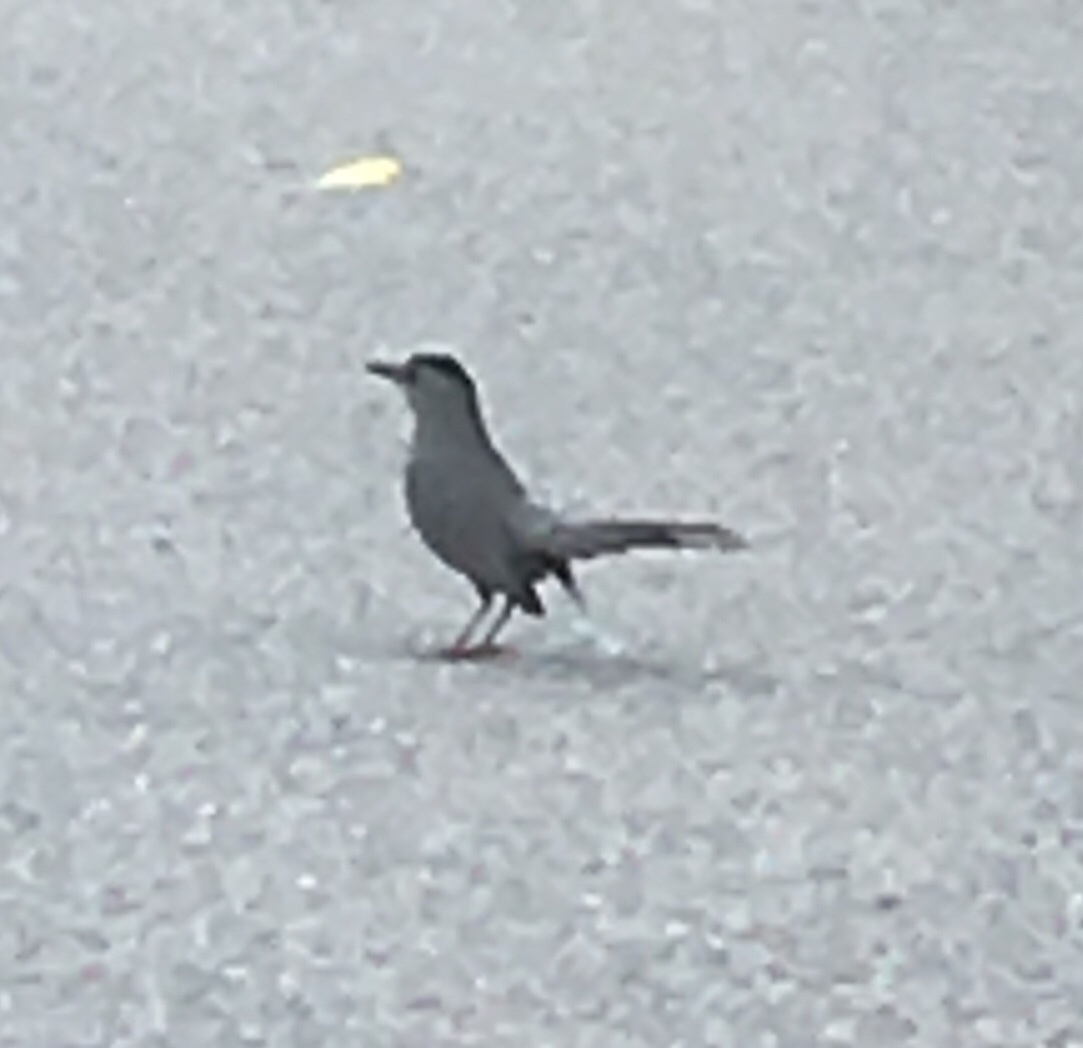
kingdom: Animalia
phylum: Chordata
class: Aves
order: Passeriformes
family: Mimidae
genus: Dumetella
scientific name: Dumetella carolinensis
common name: Gray catbird
